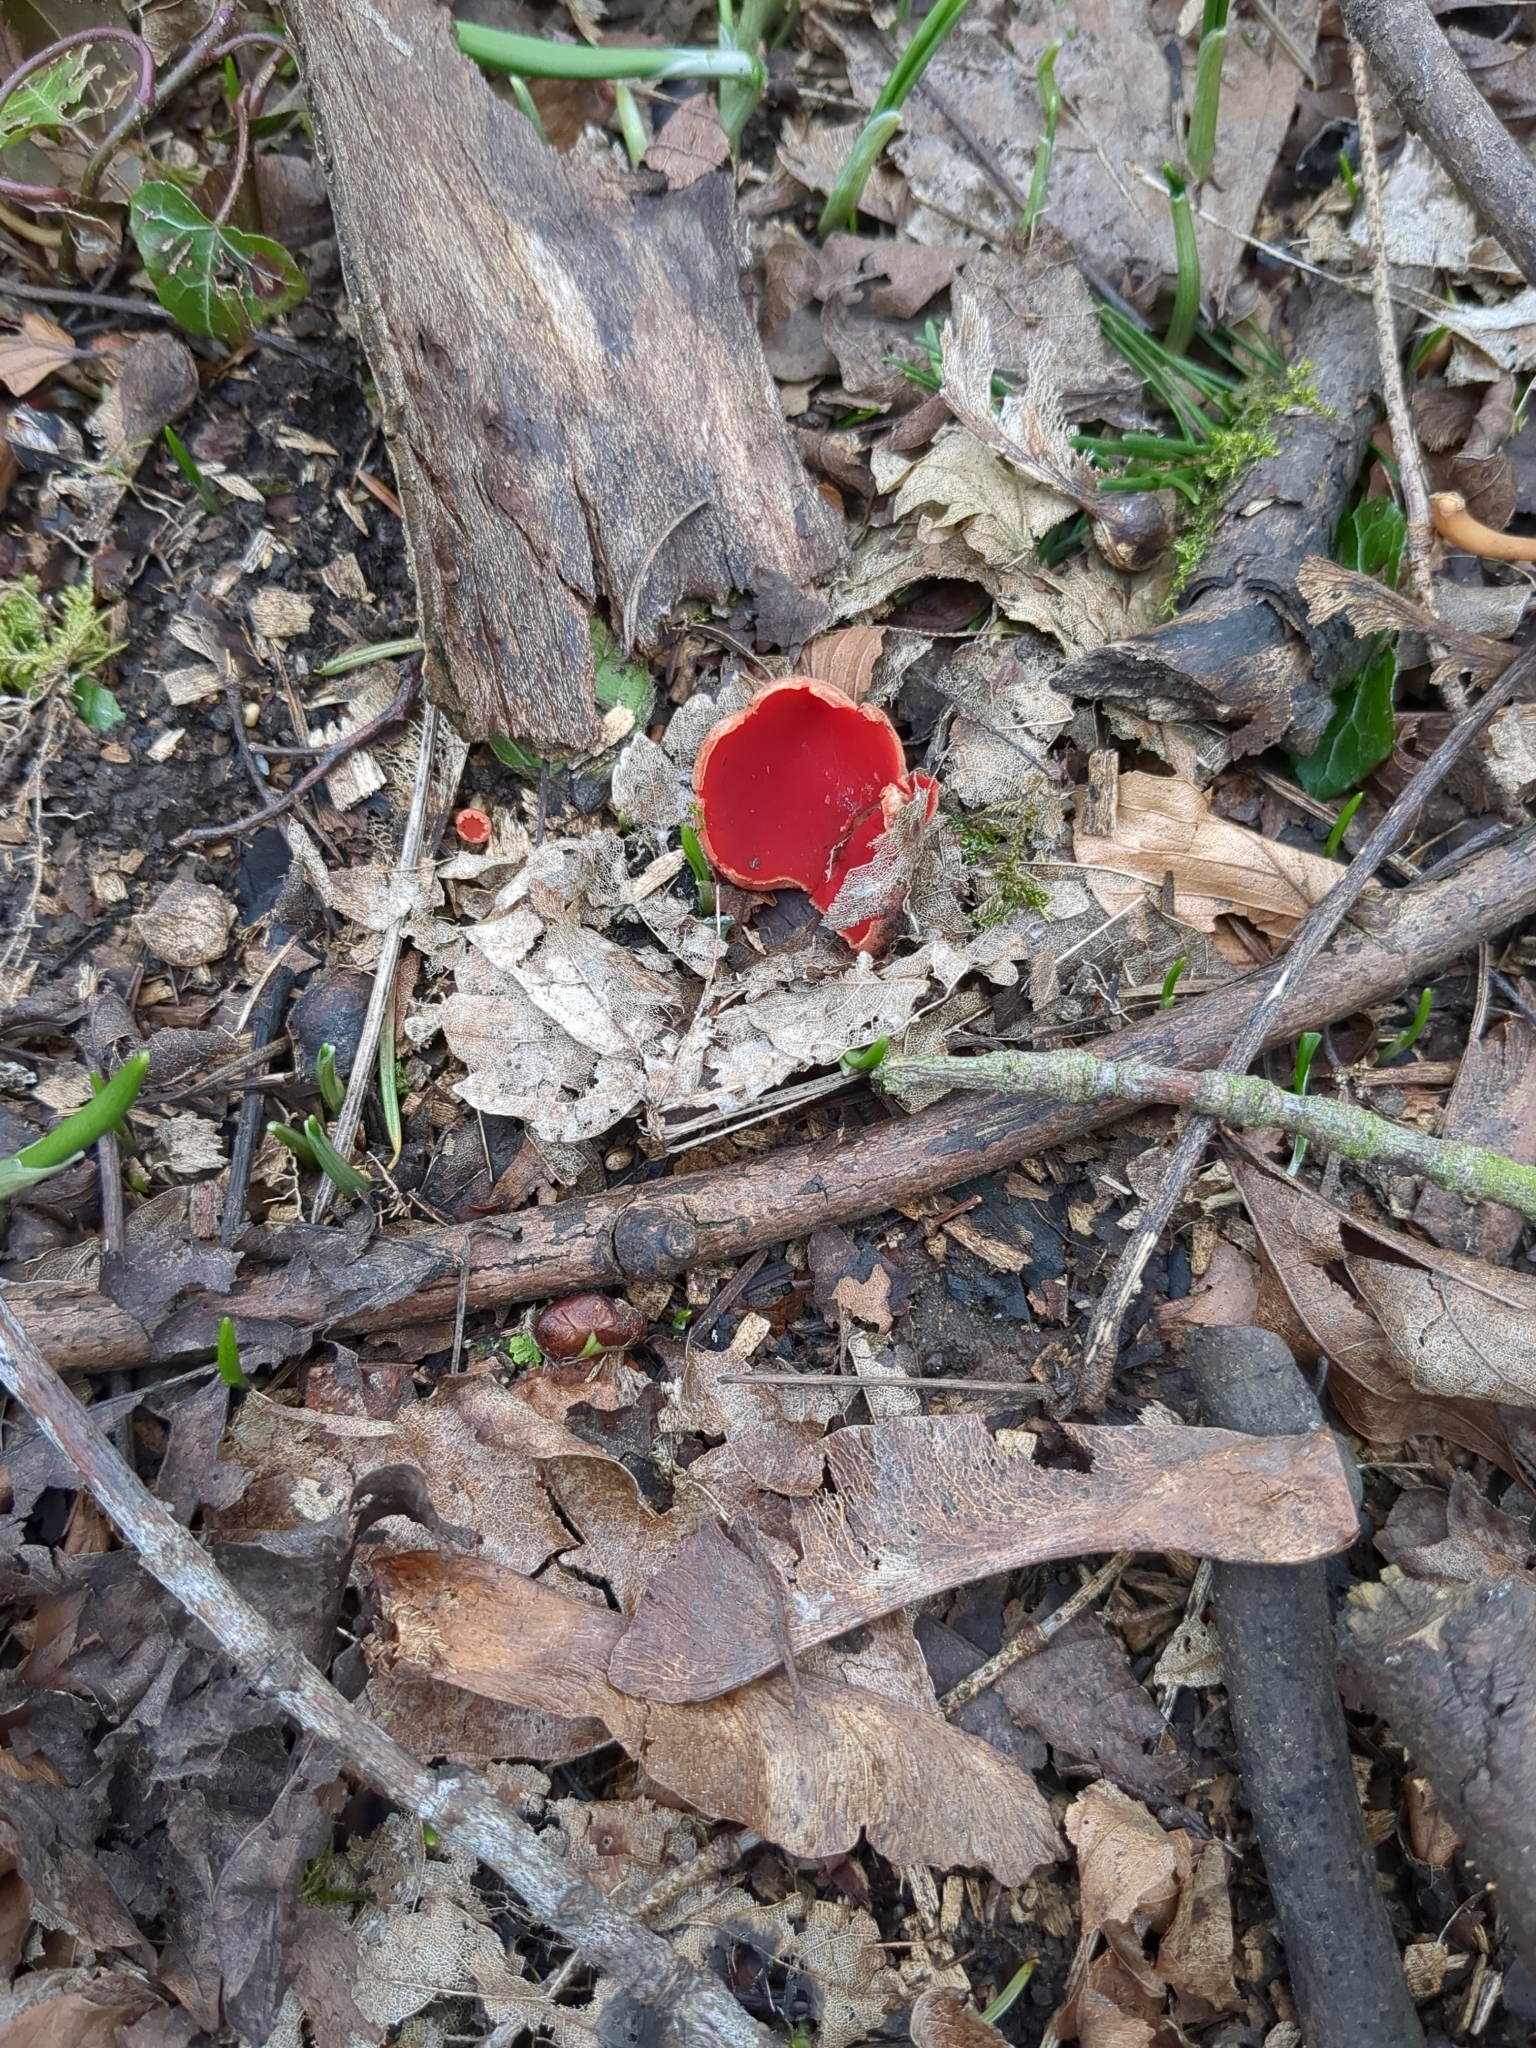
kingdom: Fungi
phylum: Ascomycota
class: Pezizomycetes
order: Pezizales
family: Sarcoscyphaceae
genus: Sarcoscypha
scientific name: Sarcoscypha
